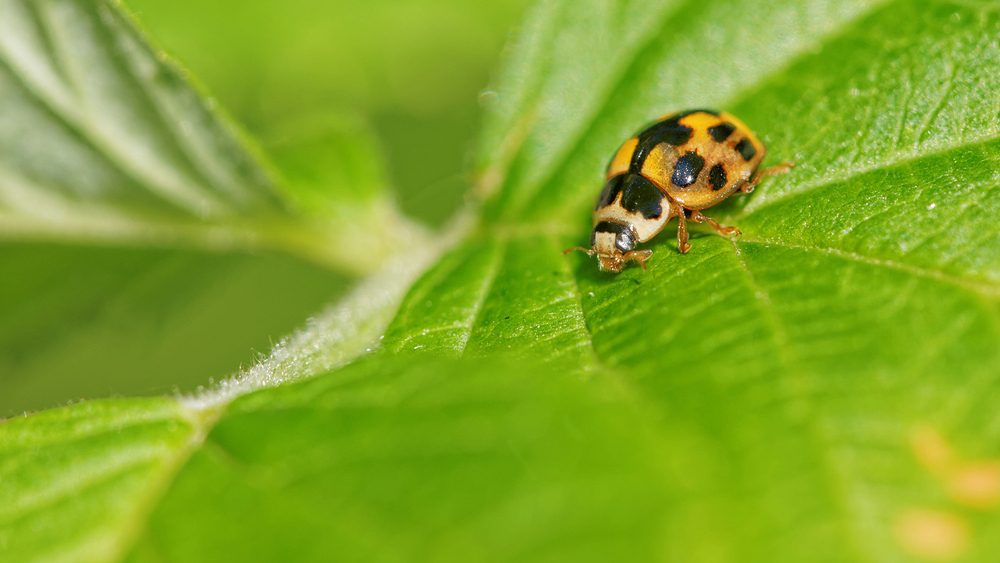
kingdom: Animalia
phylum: Arthropoda
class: Insecta
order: Coleoptera
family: Coccinellidae
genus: Propylaea
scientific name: Propylaea quatuordecimpunctata
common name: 14-spotted ladybird beetle
